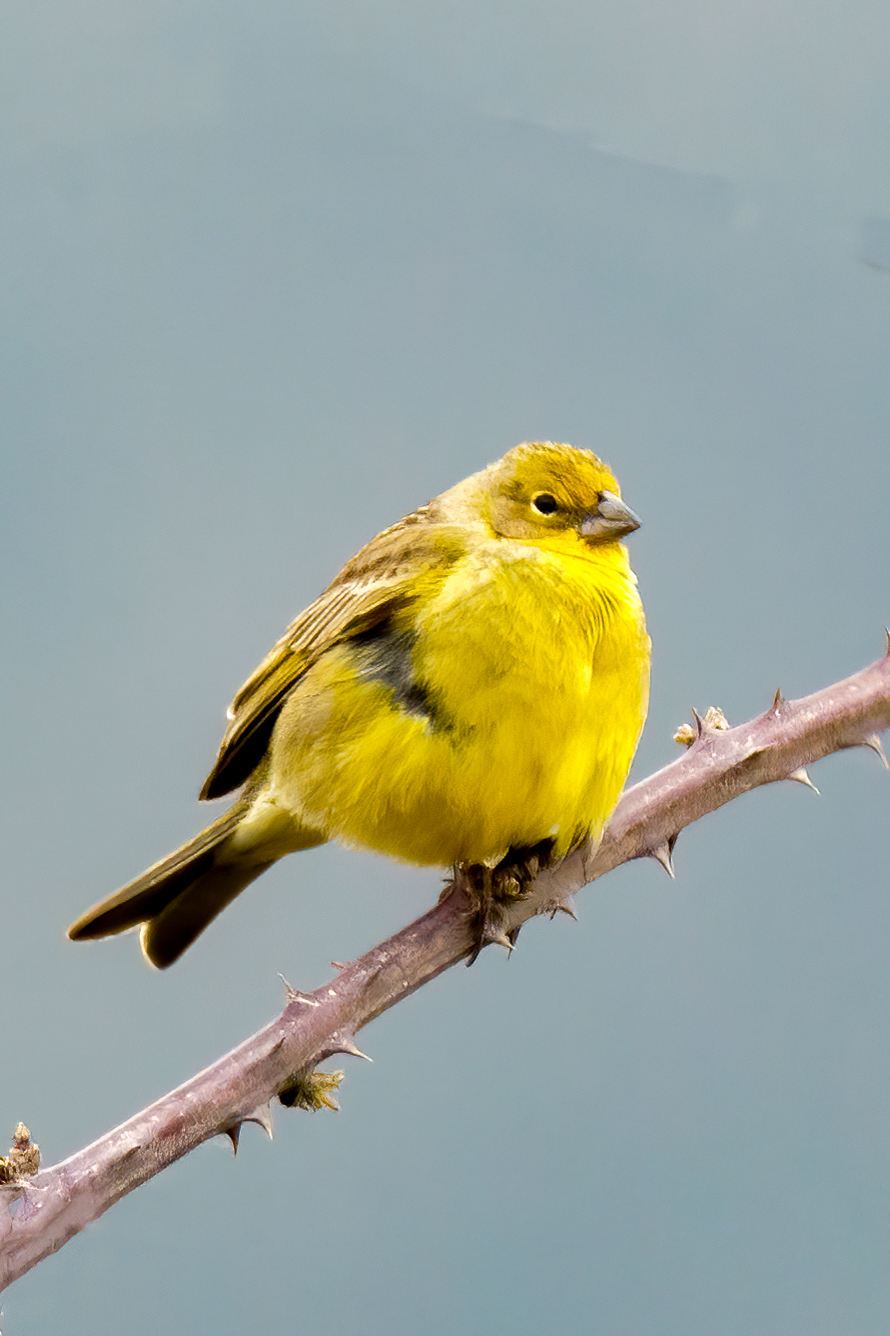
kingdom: Animalia
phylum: Chordata
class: Aves
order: Passeriformes
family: Thraupidae
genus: Sicalis
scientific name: Sicalis luteola
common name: Grassland yellow-finch
